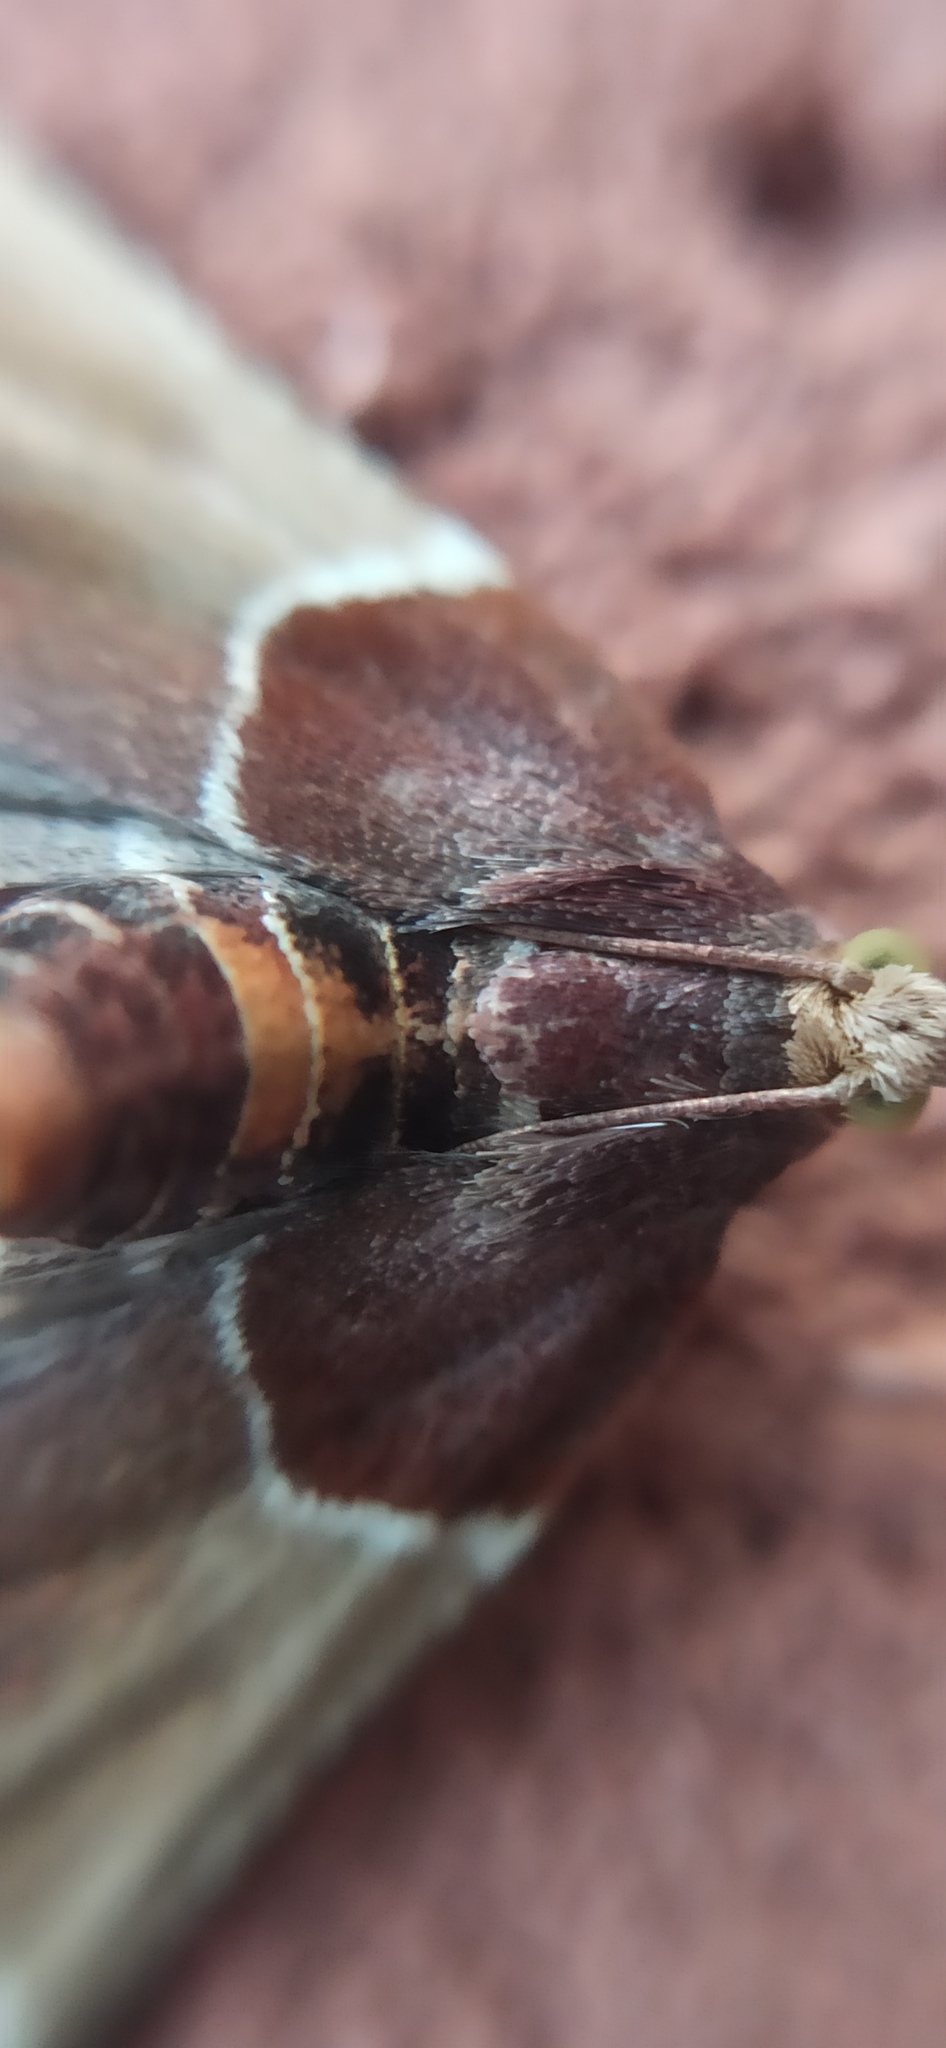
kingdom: Animalia
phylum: Arthropoda
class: Insecta
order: Lepidoptera
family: Pyralidae
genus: Pyralis
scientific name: Pyralis farinalis
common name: Meal moth
